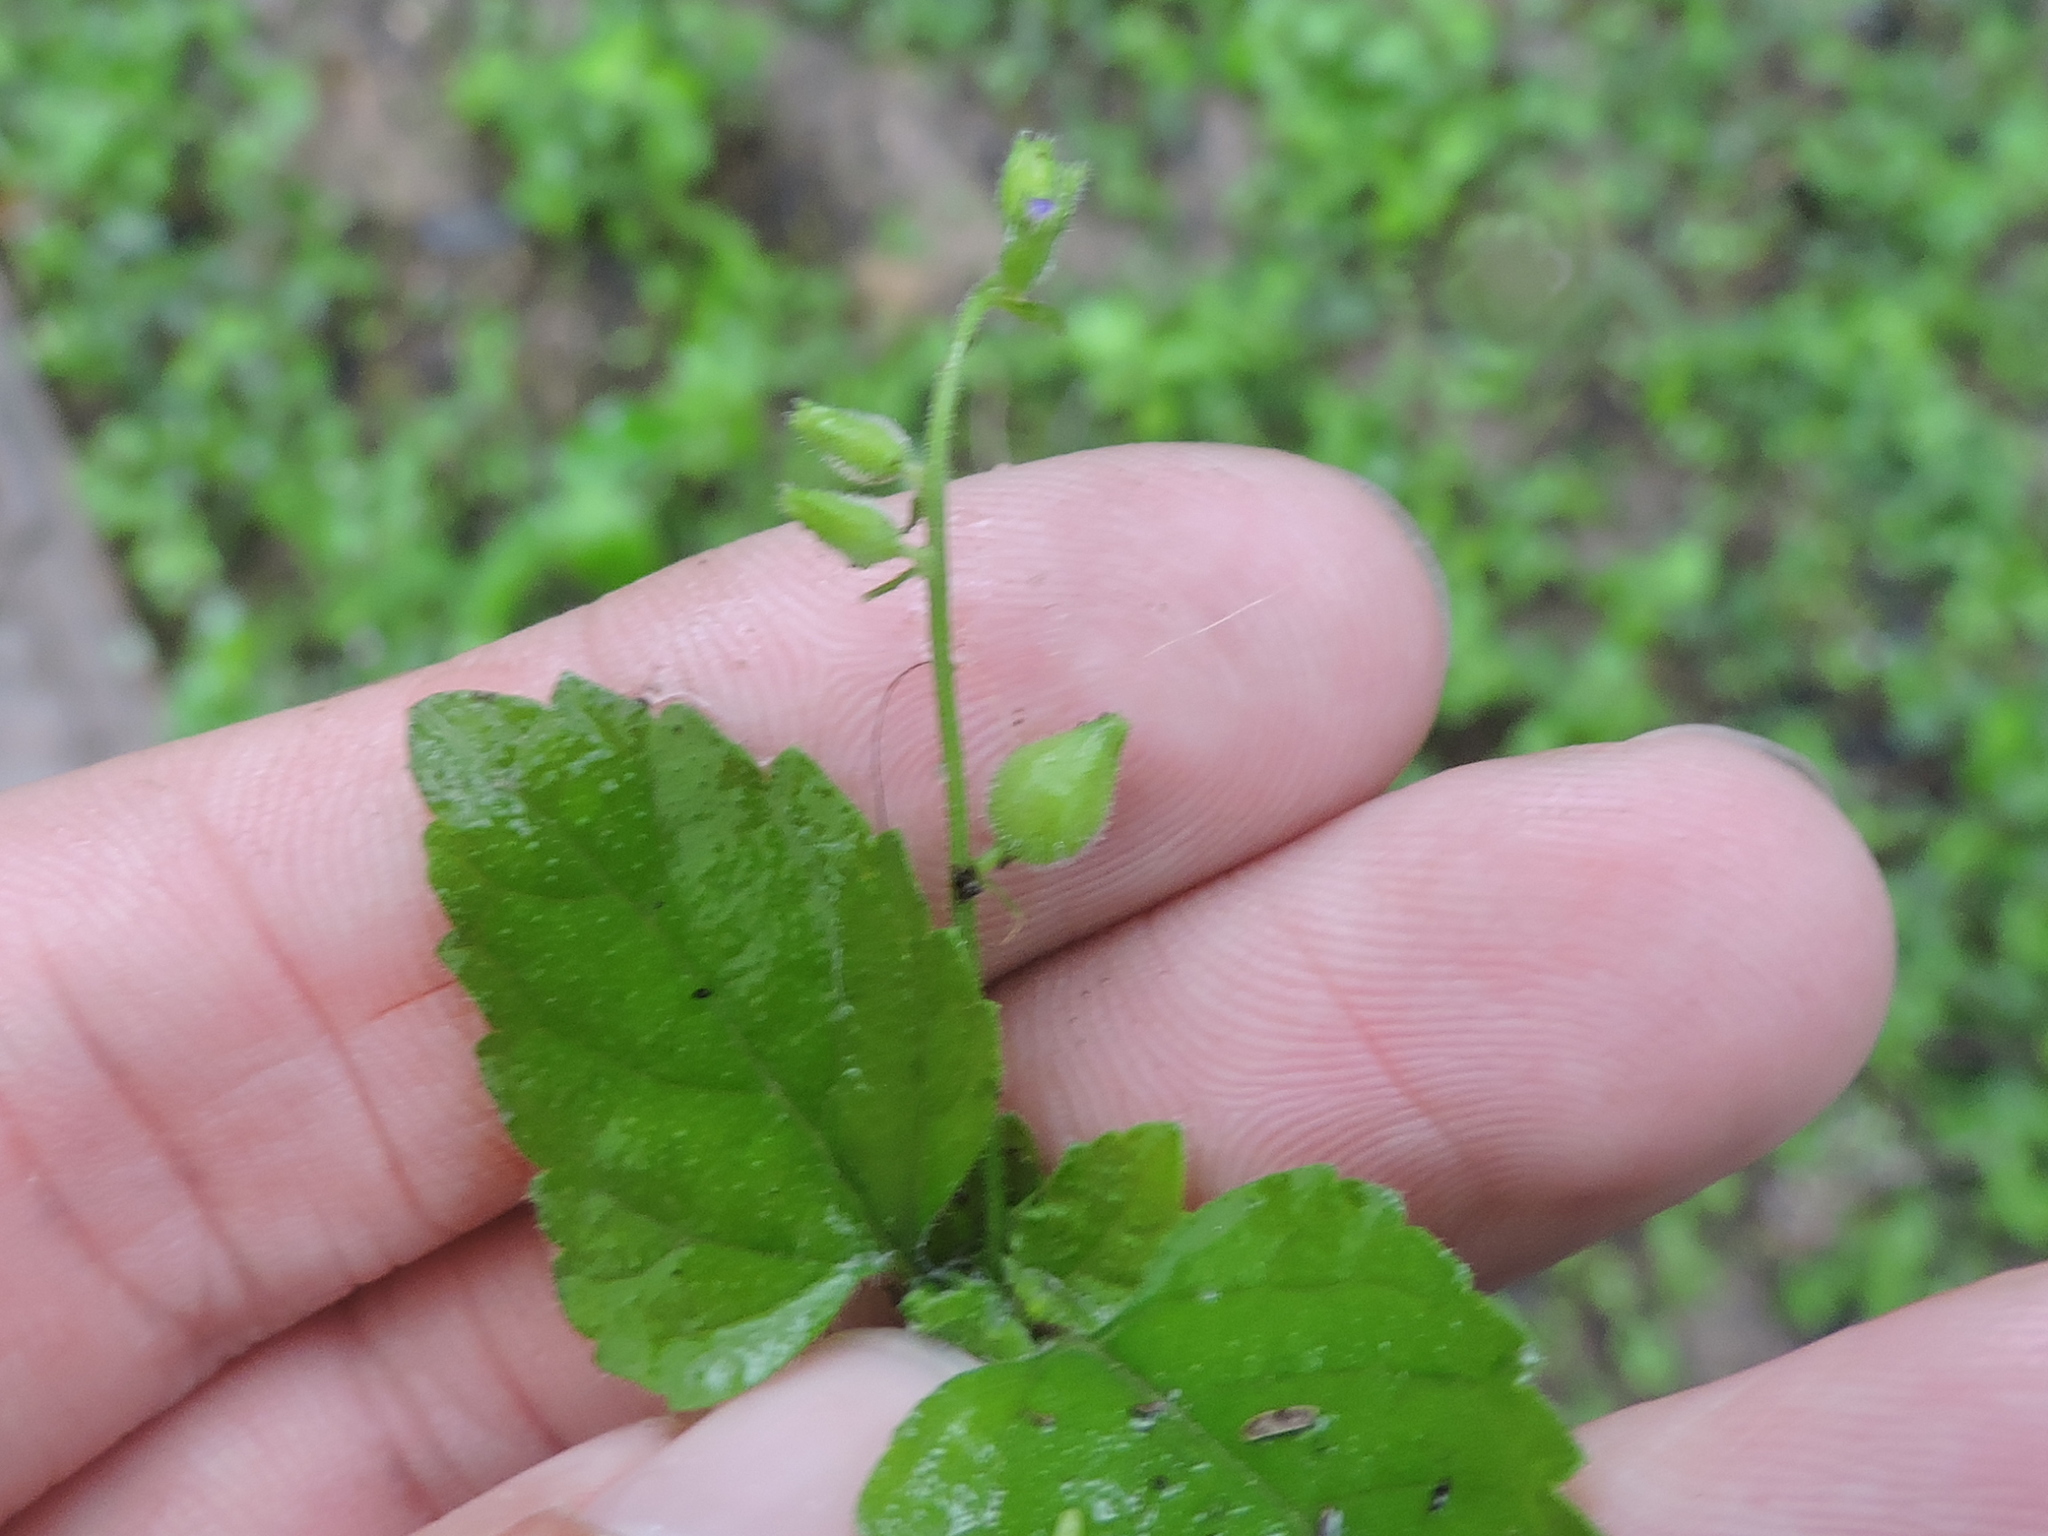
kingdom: Plantae
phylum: Tracheophyta
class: Magnoliopsida
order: Lamiales
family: Verbenaceae
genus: Priva
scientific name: Priva lappulacea
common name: Fasten-'pon-coat
